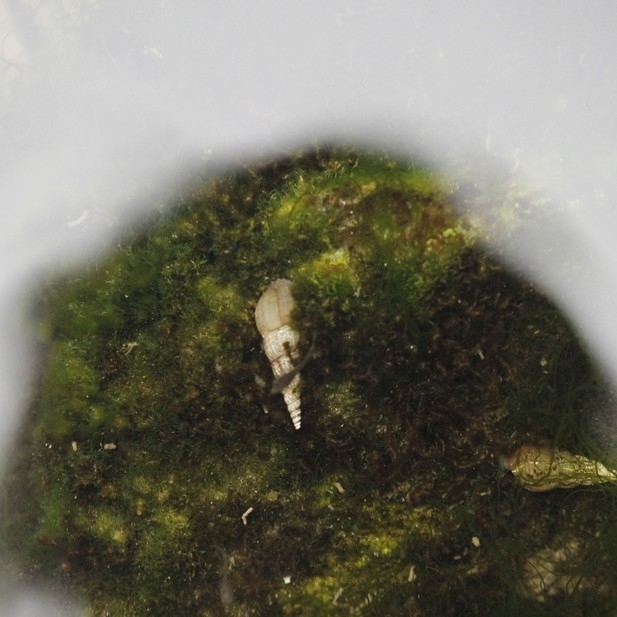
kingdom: Animalia
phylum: Mollusca
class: Gastropoda
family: Thiaridae
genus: Melanoides
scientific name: Melanoides tuberculata
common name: Red-rim melania
